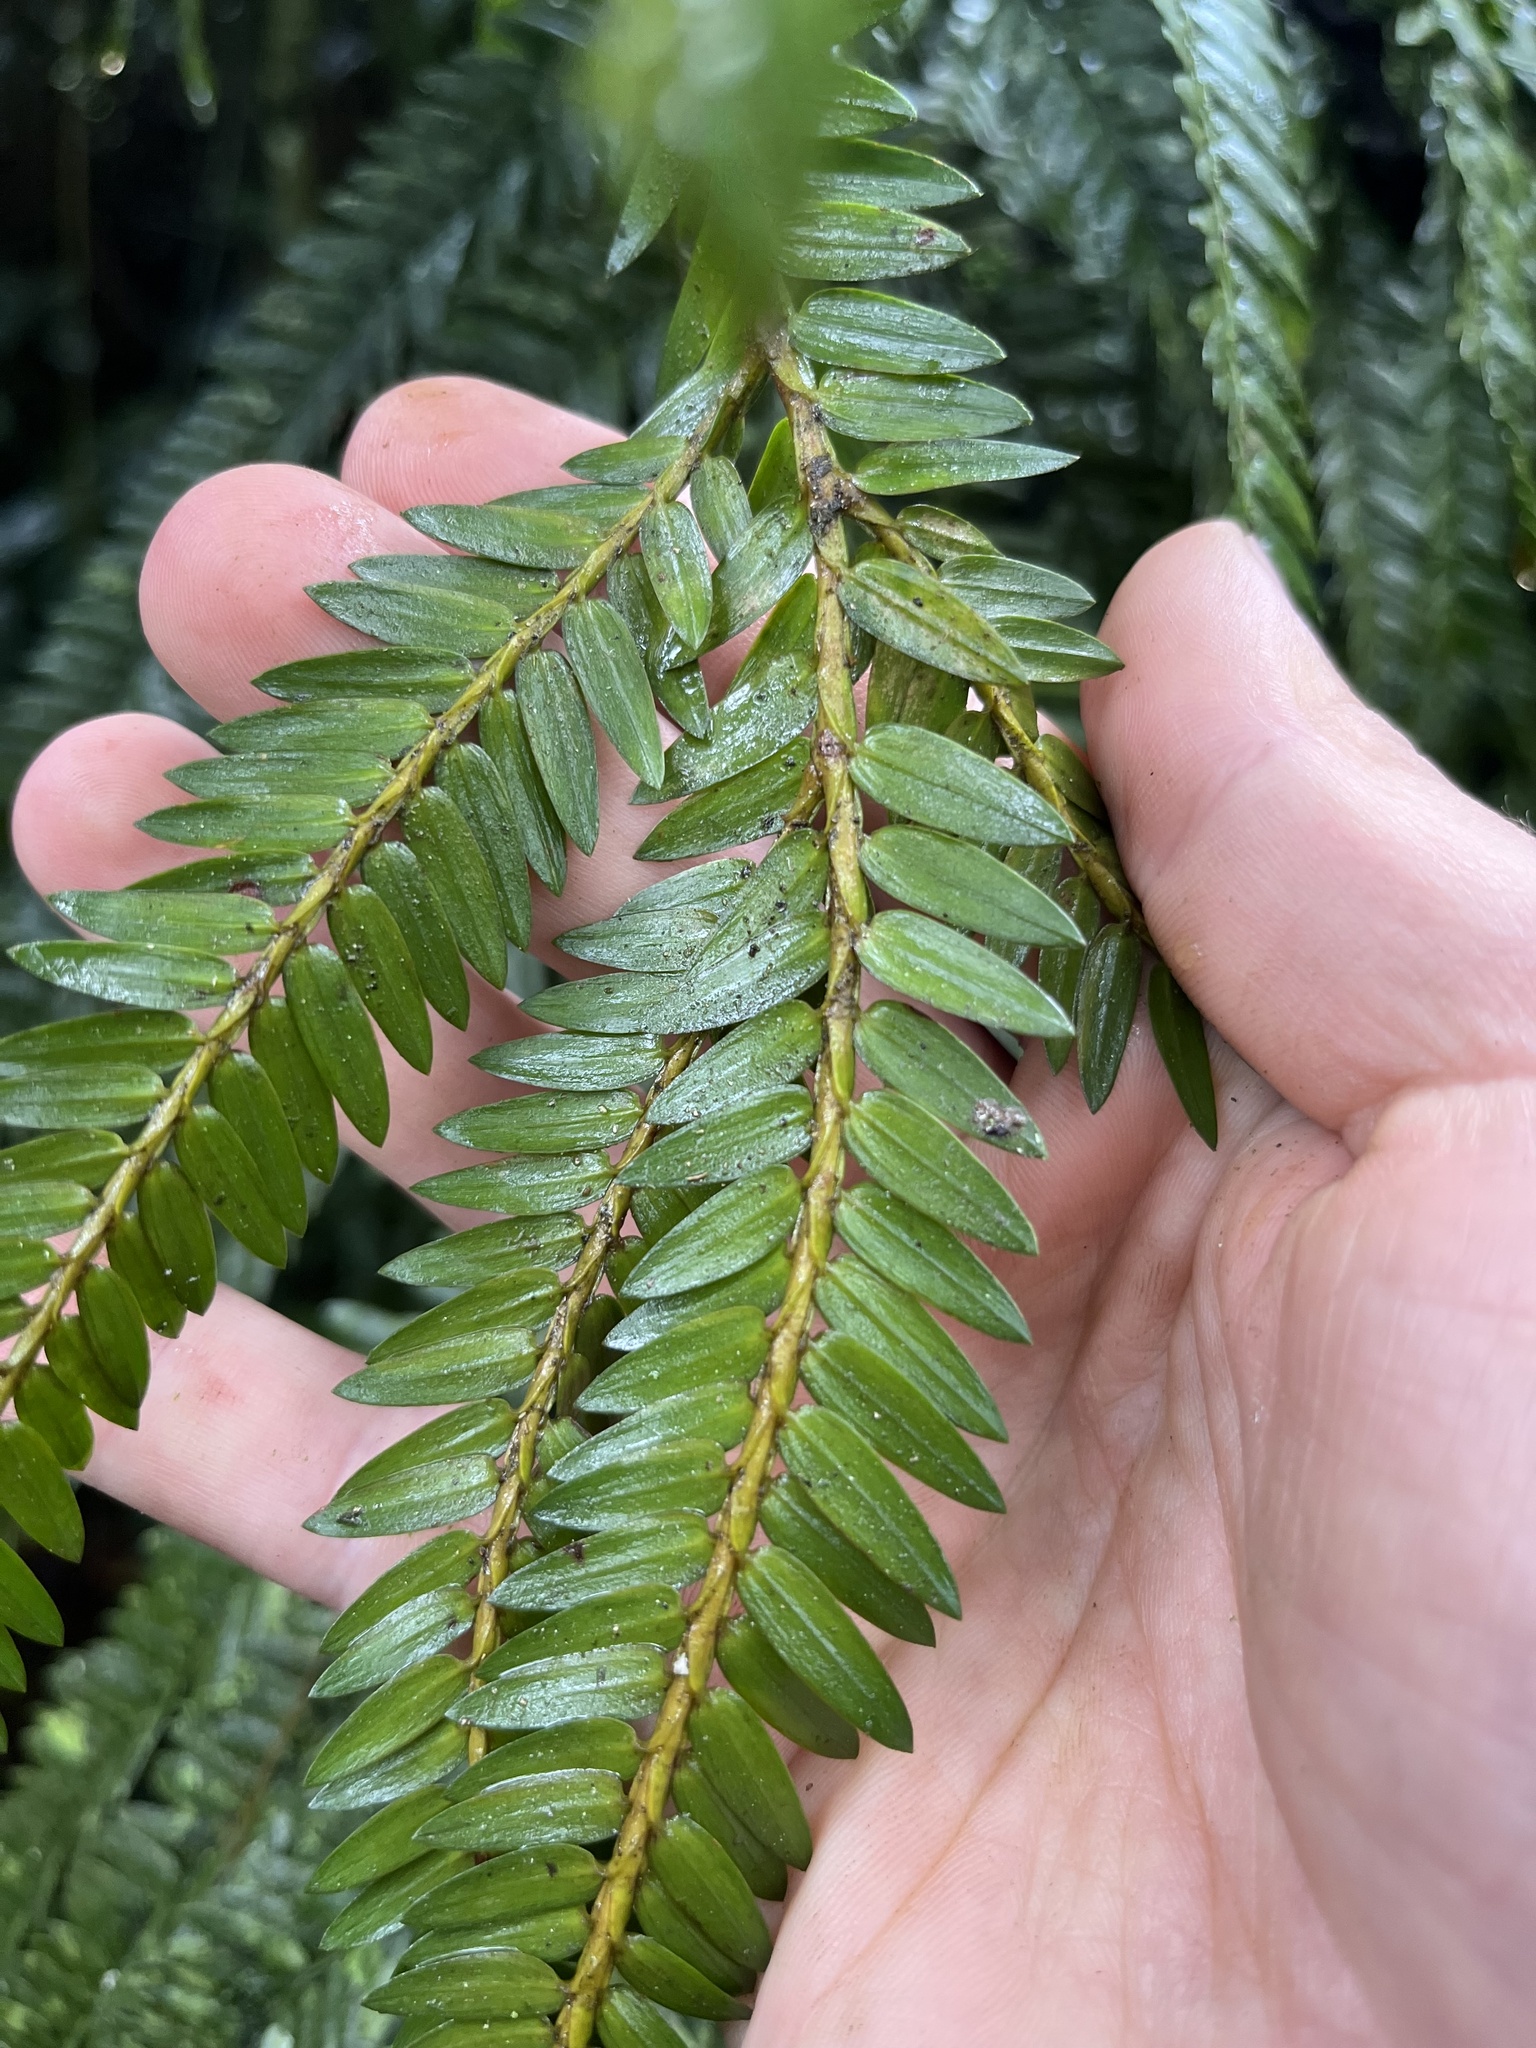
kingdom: Plantae
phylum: Tracheophyta
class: Pinopsida
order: Pinales
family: Podocarpaceae
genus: Retrophyllum
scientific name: Retrophyllum rospigliosii
